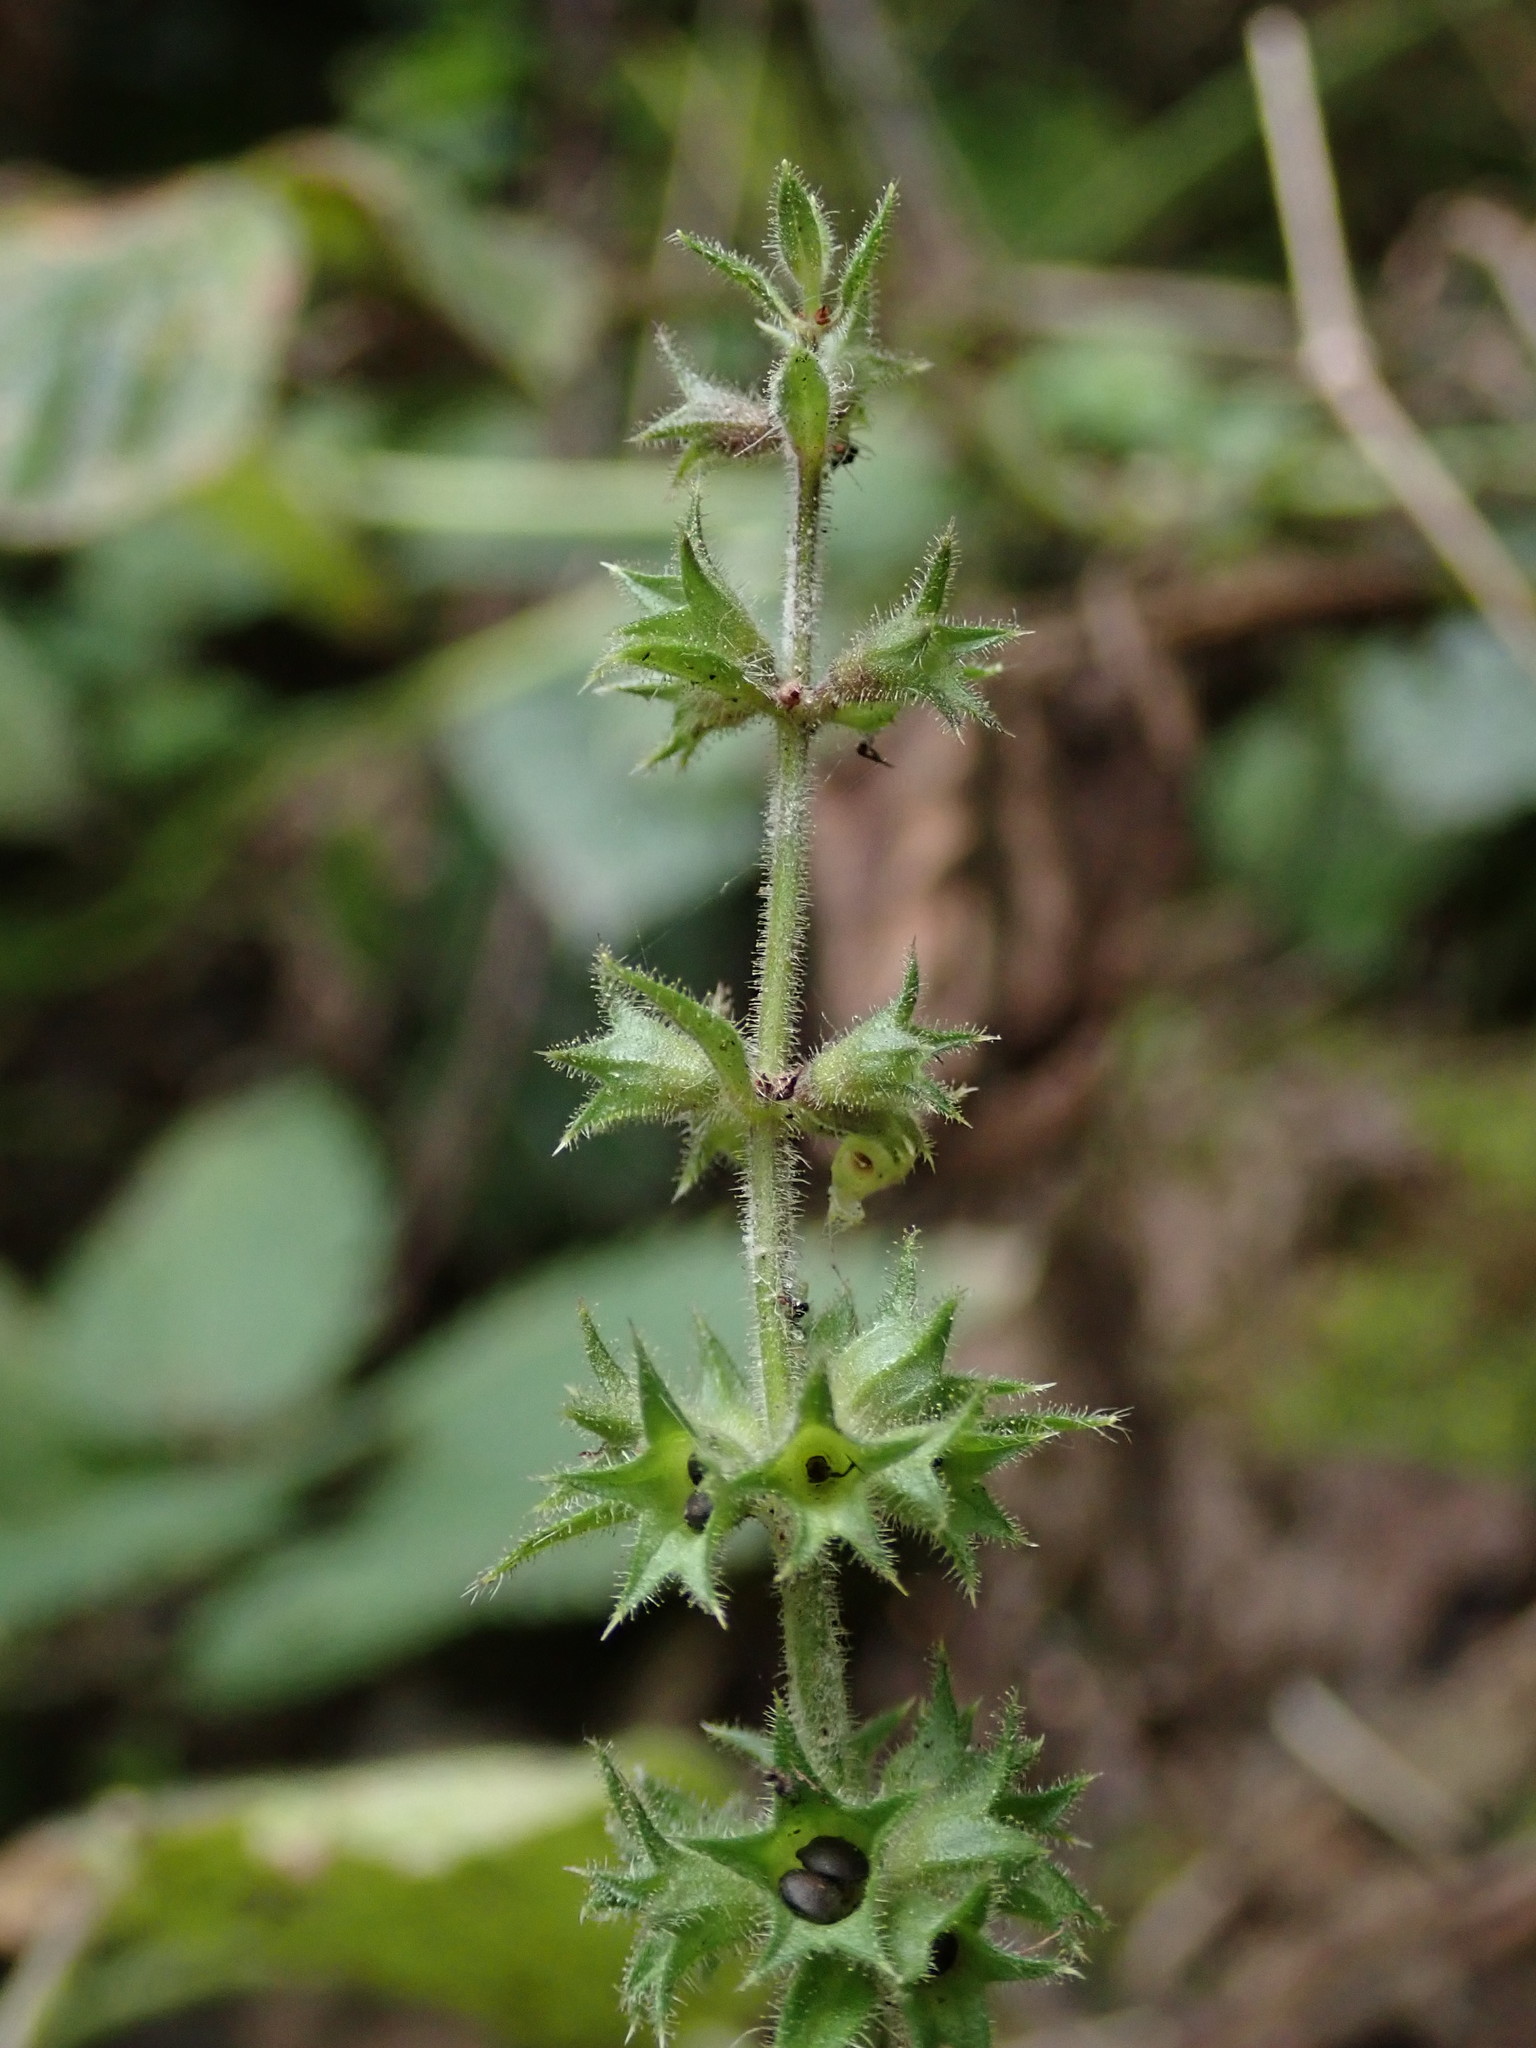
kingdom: Plantae
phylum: Tracheophyta
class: Magnoliopsida
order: Lamiales
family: Lamiaceae
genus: Stachys
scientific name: Stachys sylvatica
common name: Hedge woundwort
